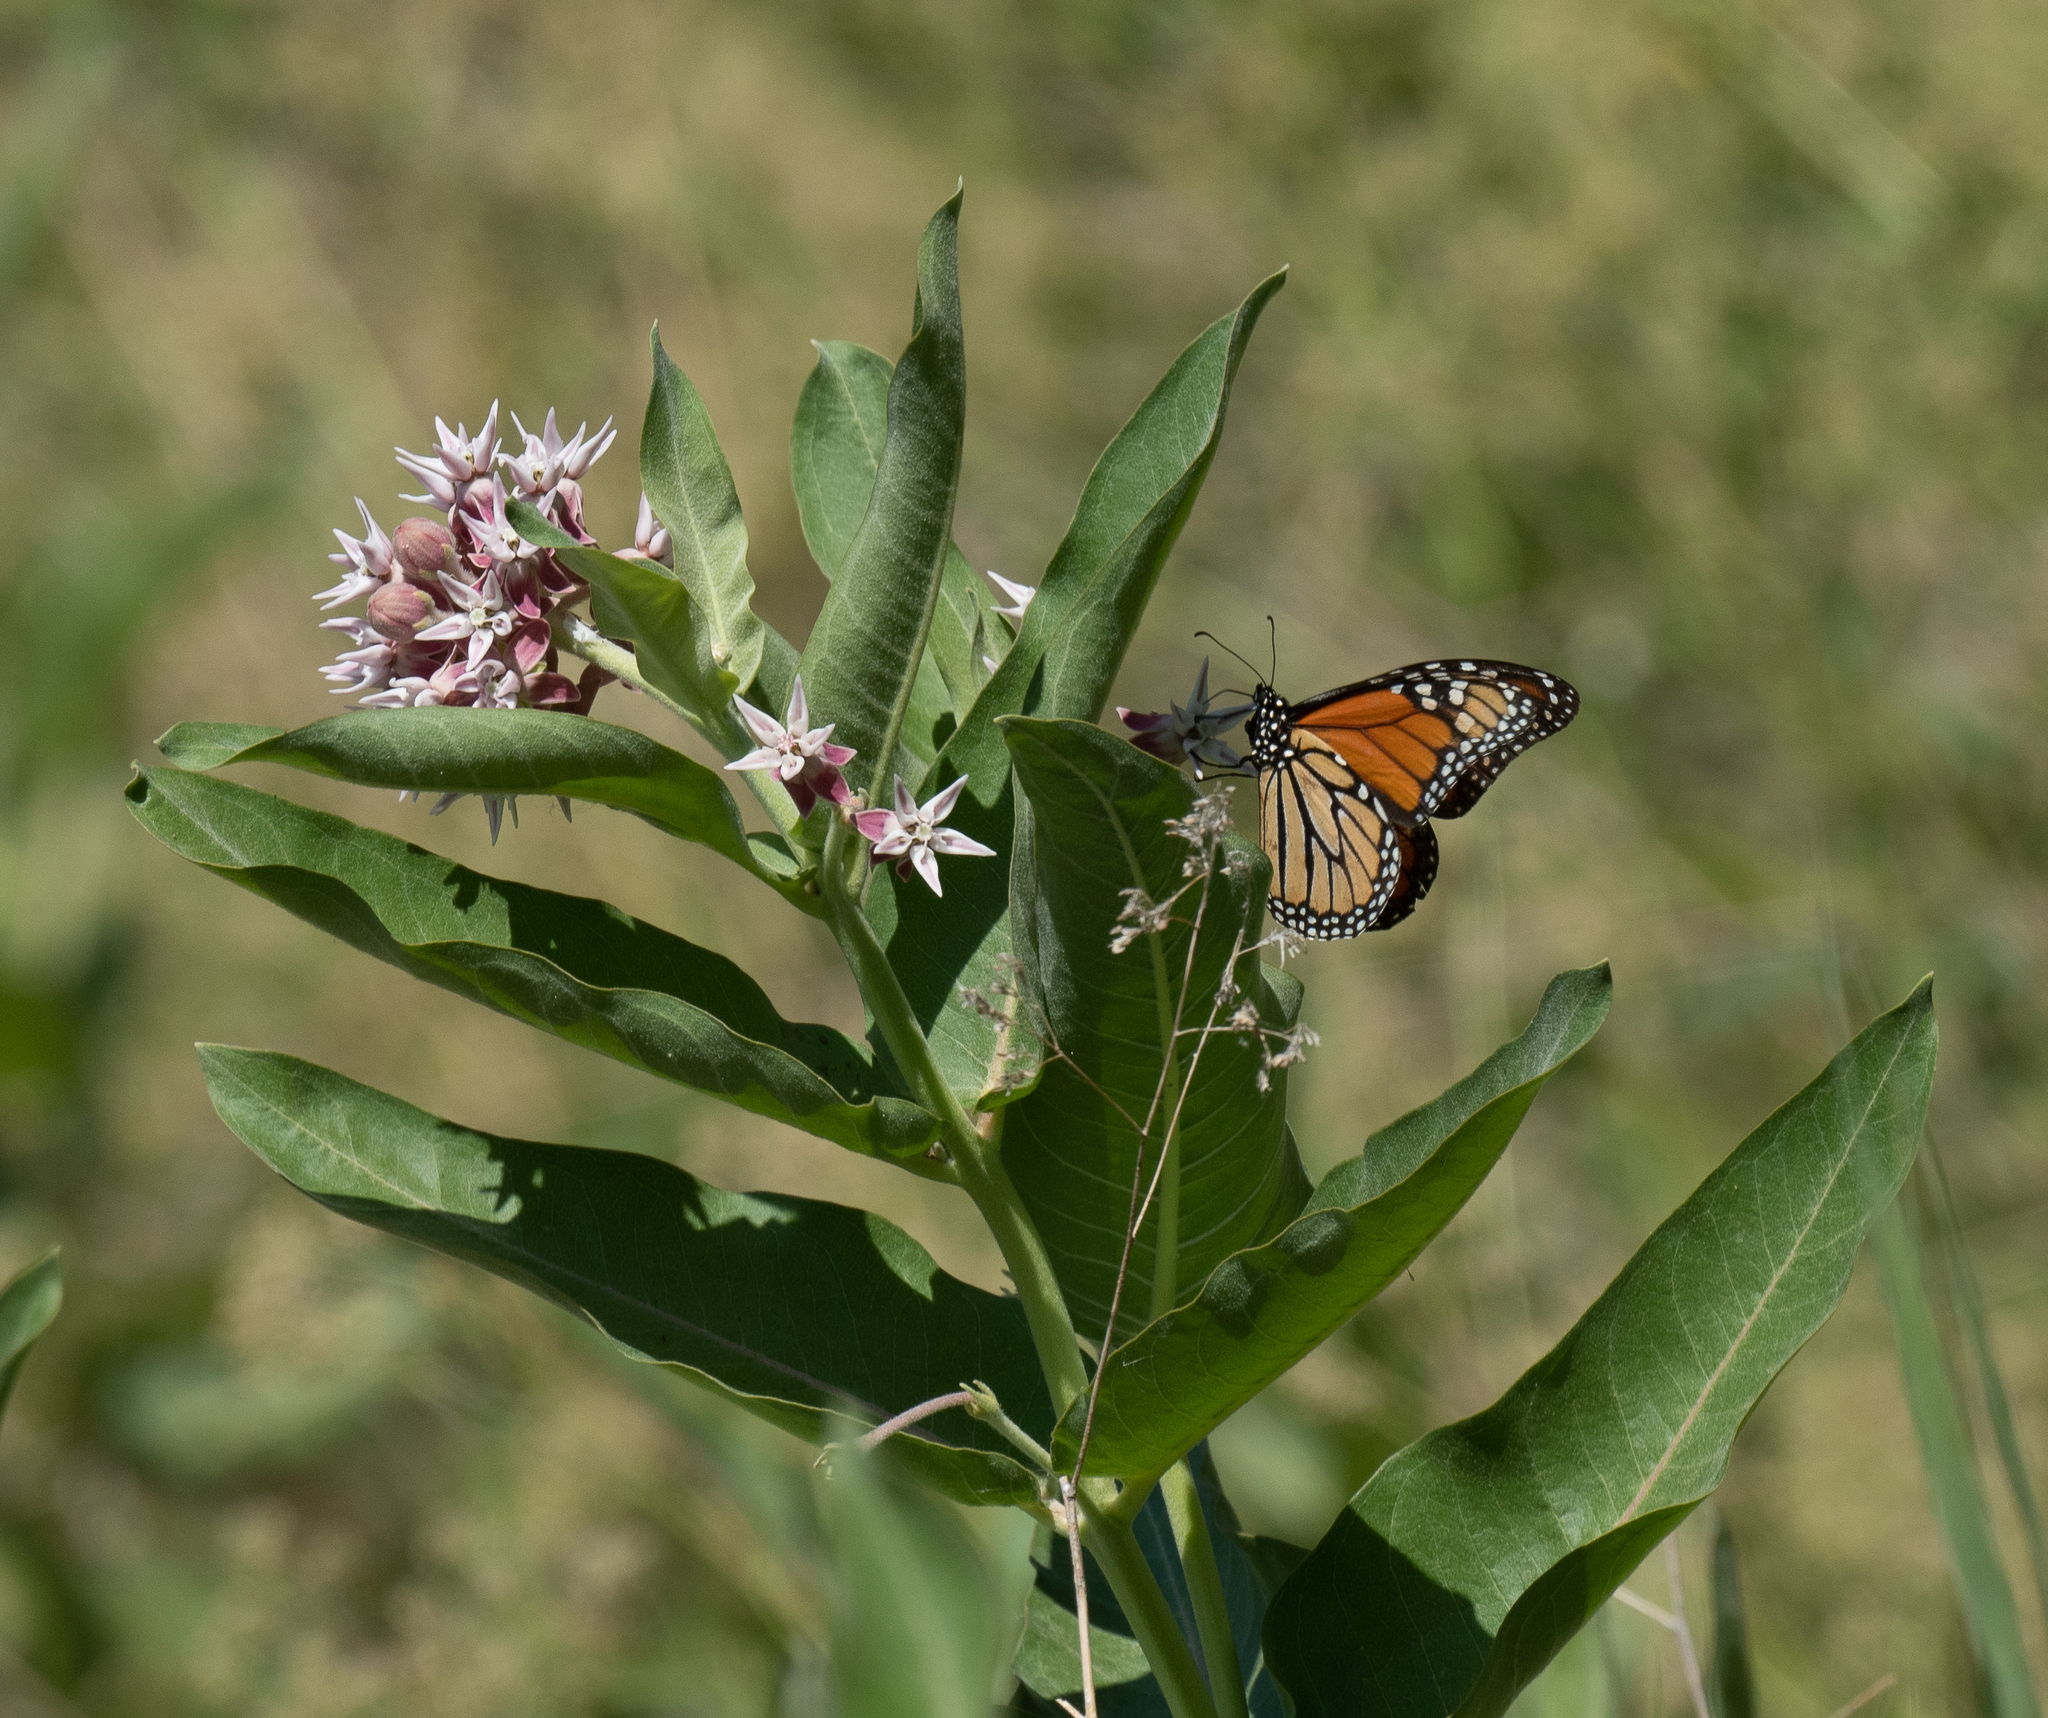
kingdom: Animalia
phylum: Arthropoda
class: Insecta
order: Lepidoptera
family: Nymphalidae
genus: Danaus
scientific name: Danaus plexippus
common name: Monarch
